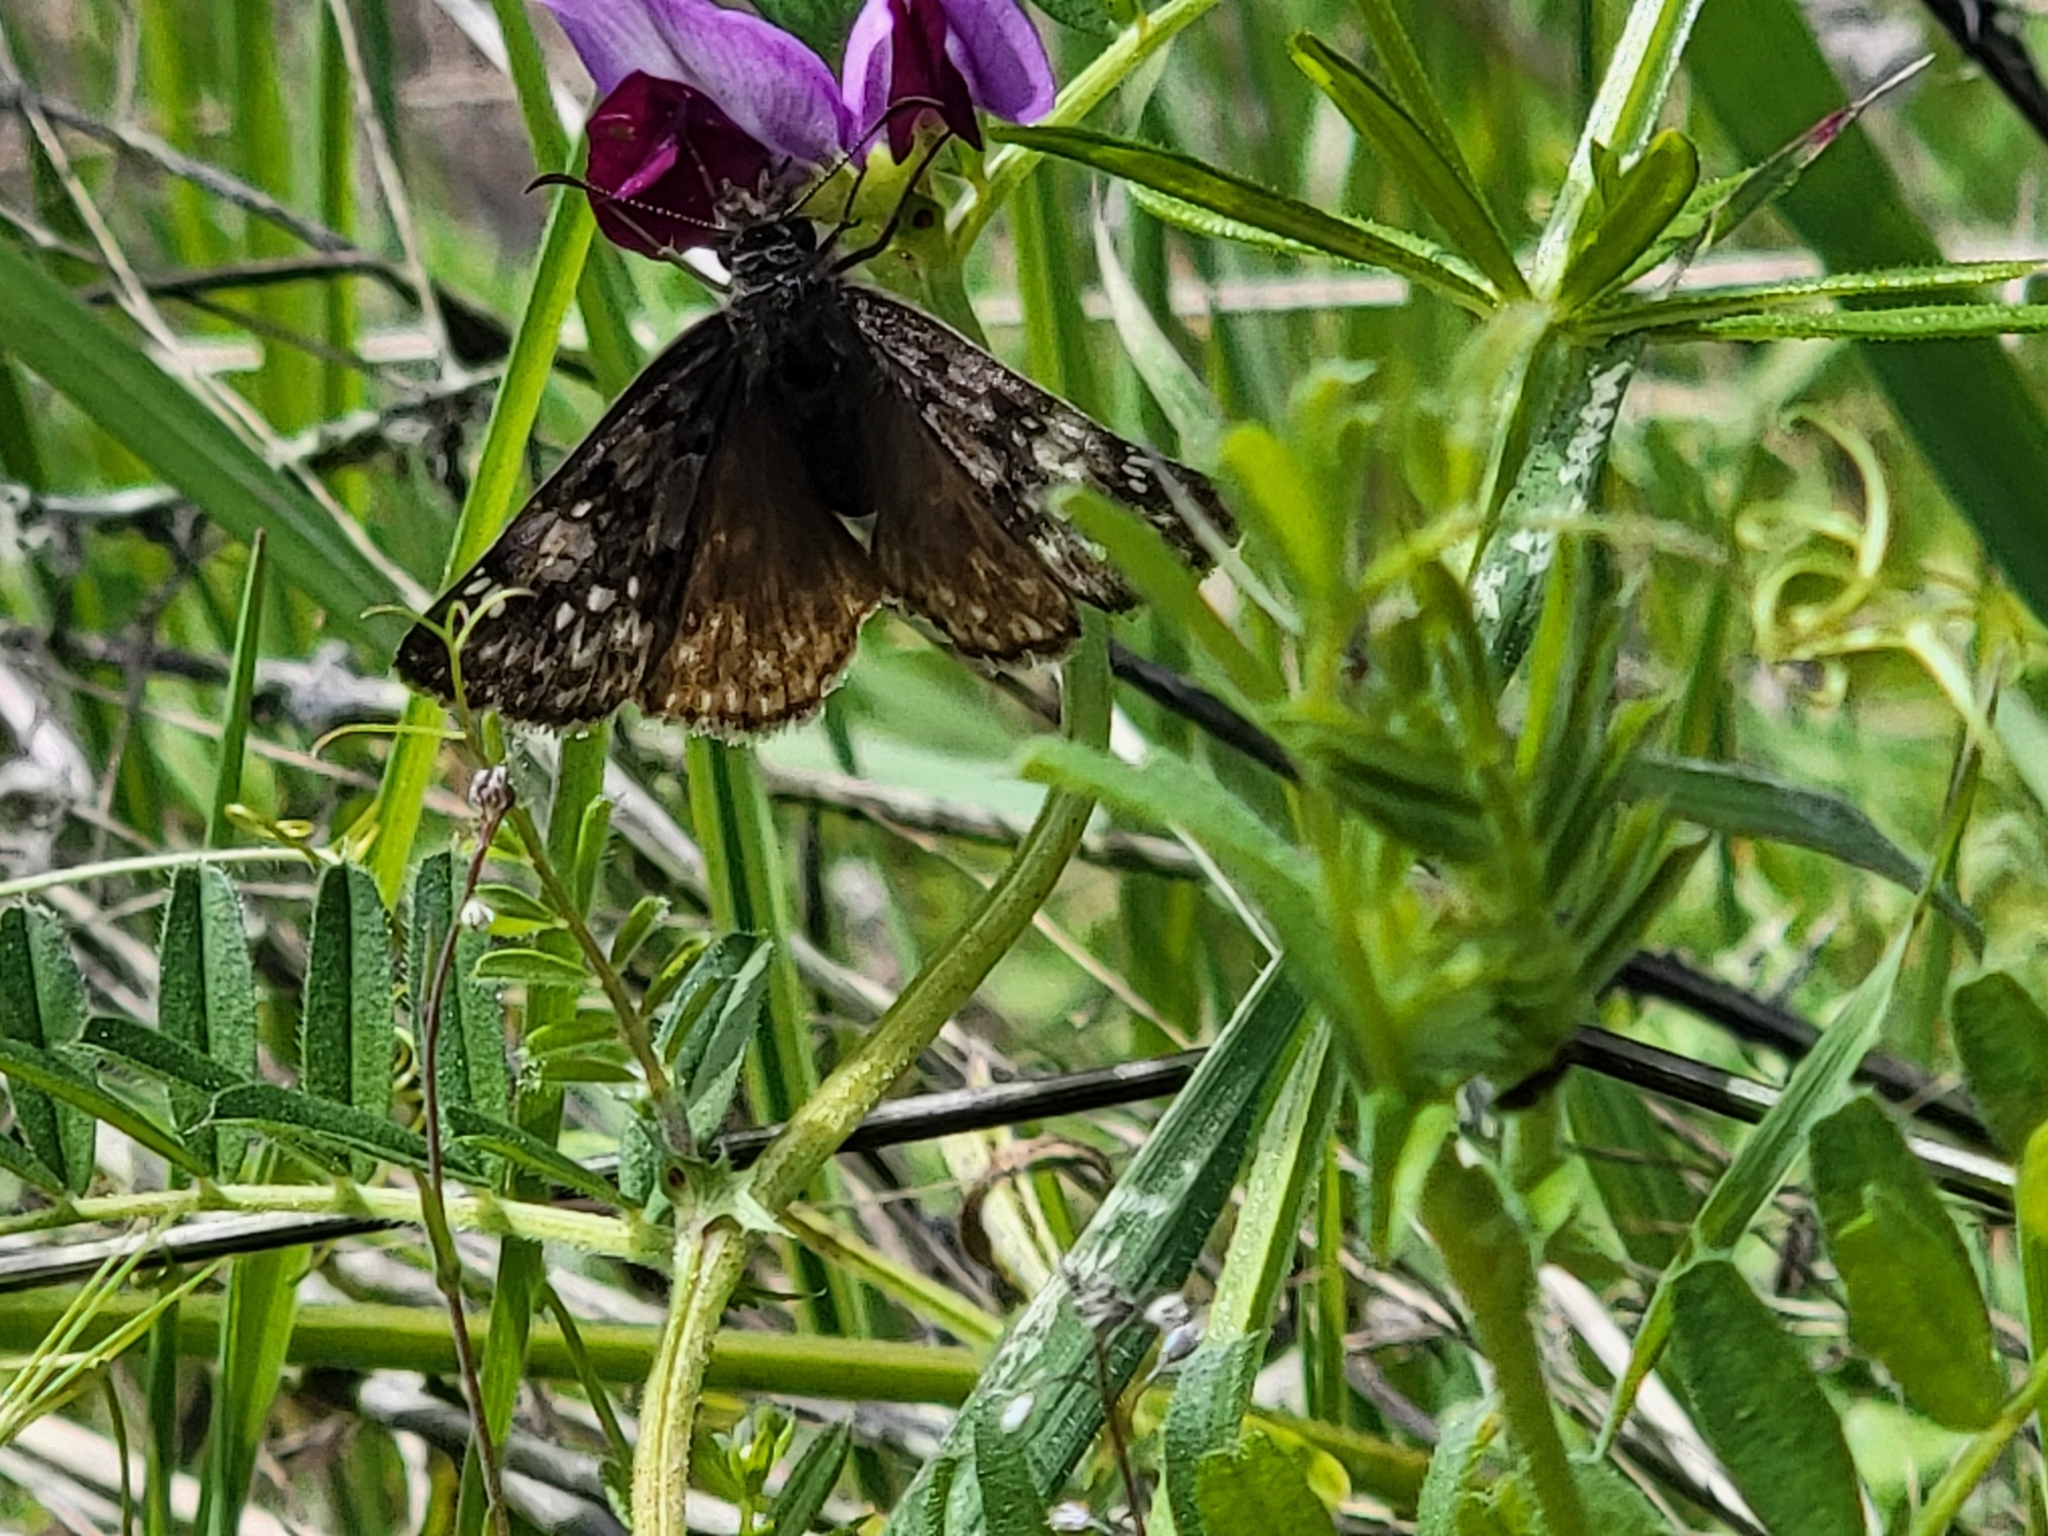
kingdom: Animalia
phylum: Arthropoda
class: Insecta
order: Lepidoptera
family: Hesperiidae
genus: Erynnis
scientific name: Erynnis propertius
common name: Propertius duskywing
